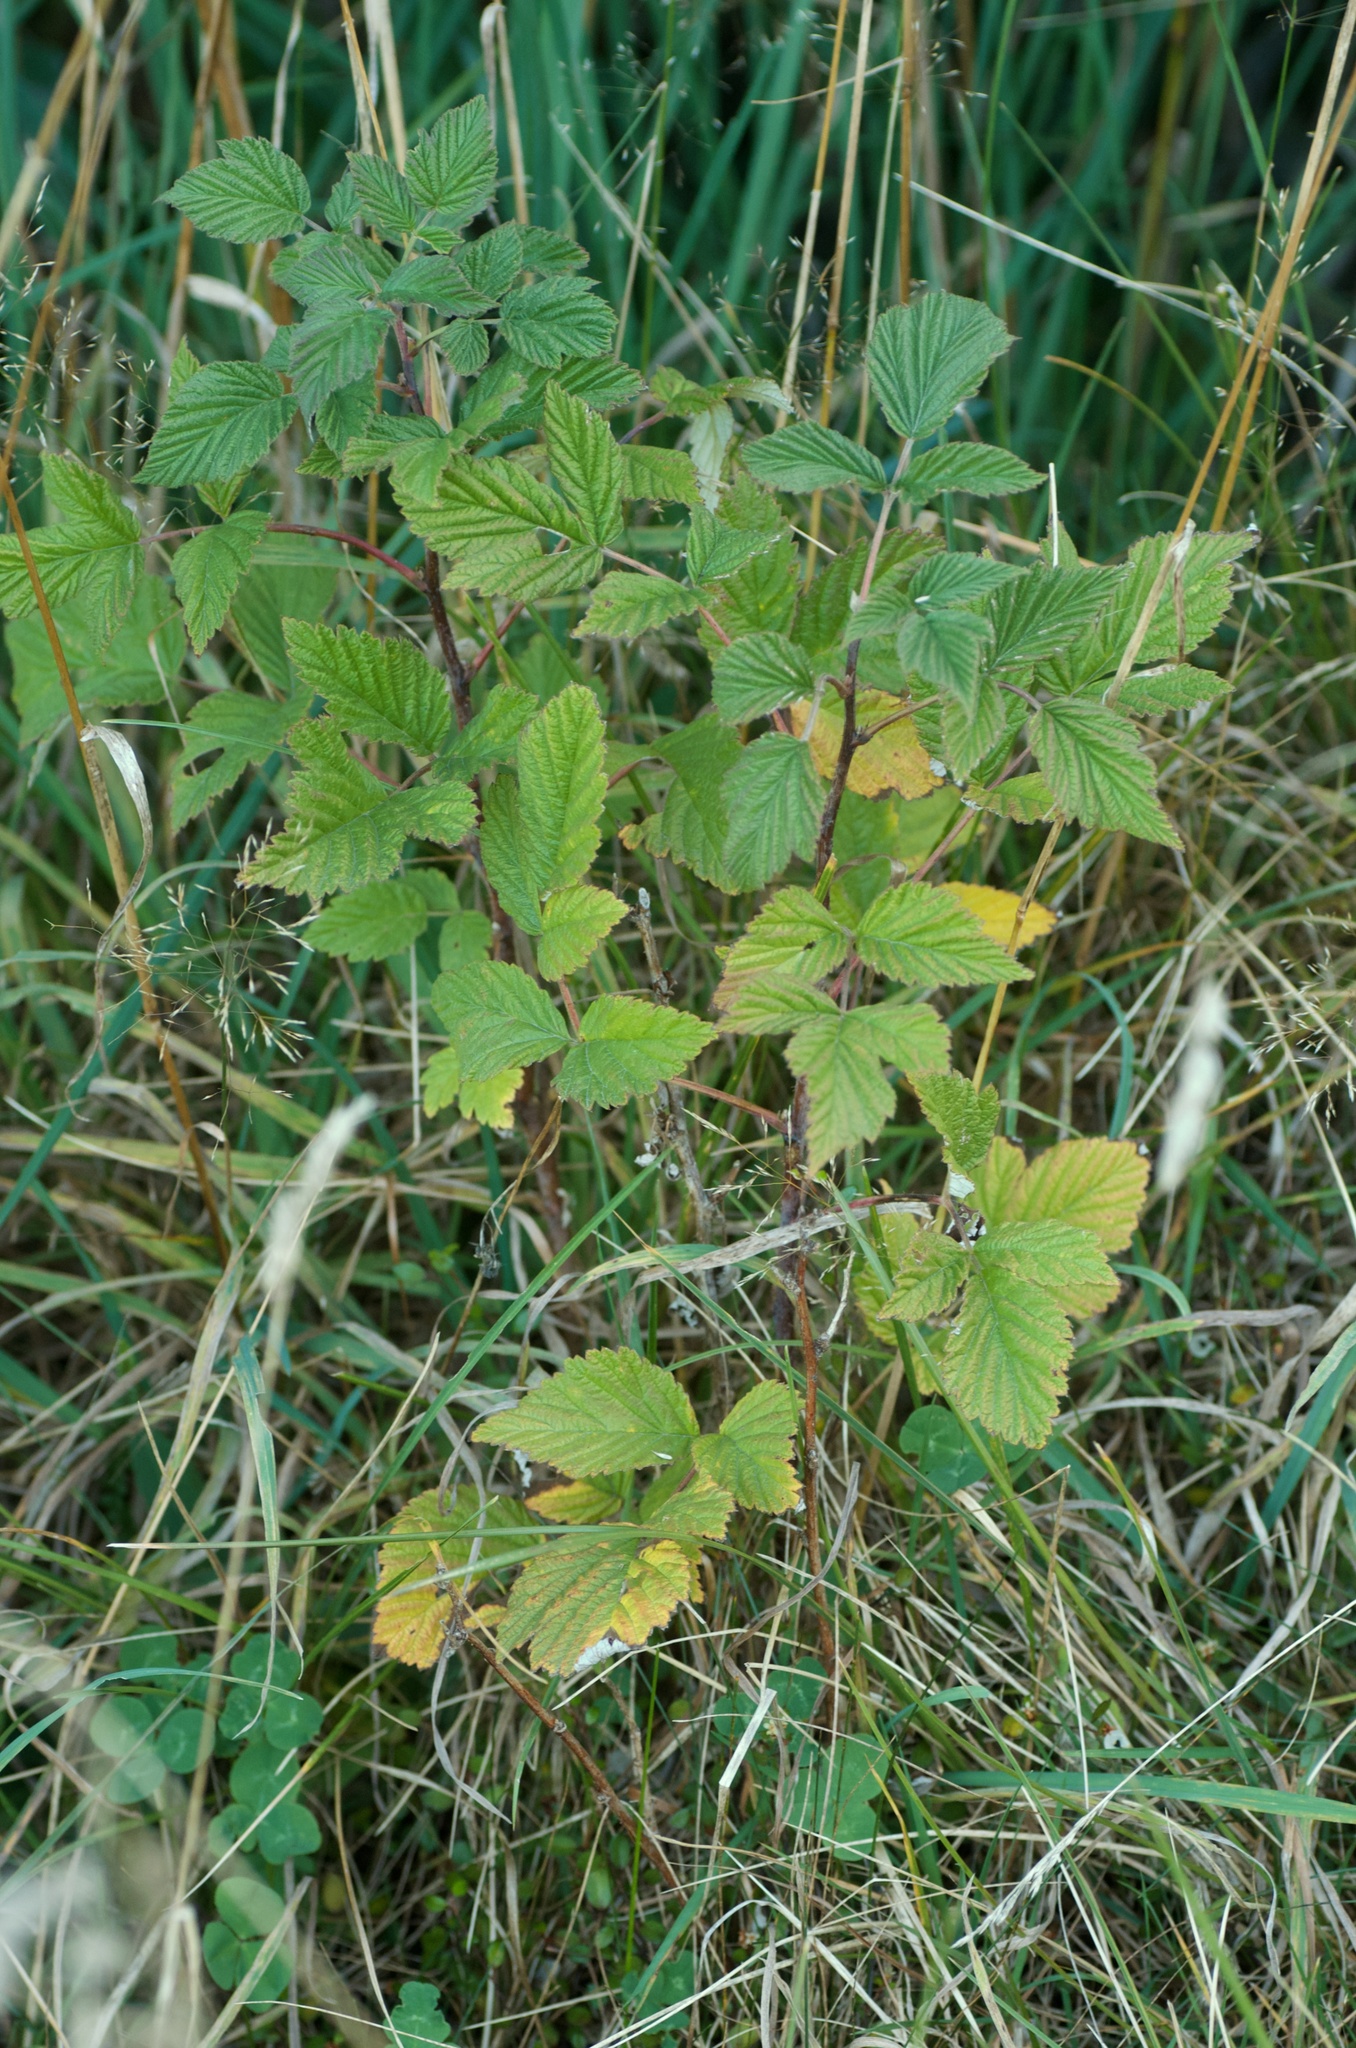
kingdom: Plantae
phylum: Tracheophyta
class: Magnoliopsida
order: Rosales
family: Rosaceae
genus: Rubus
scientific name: Rubus idaeus
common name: Raspberry
